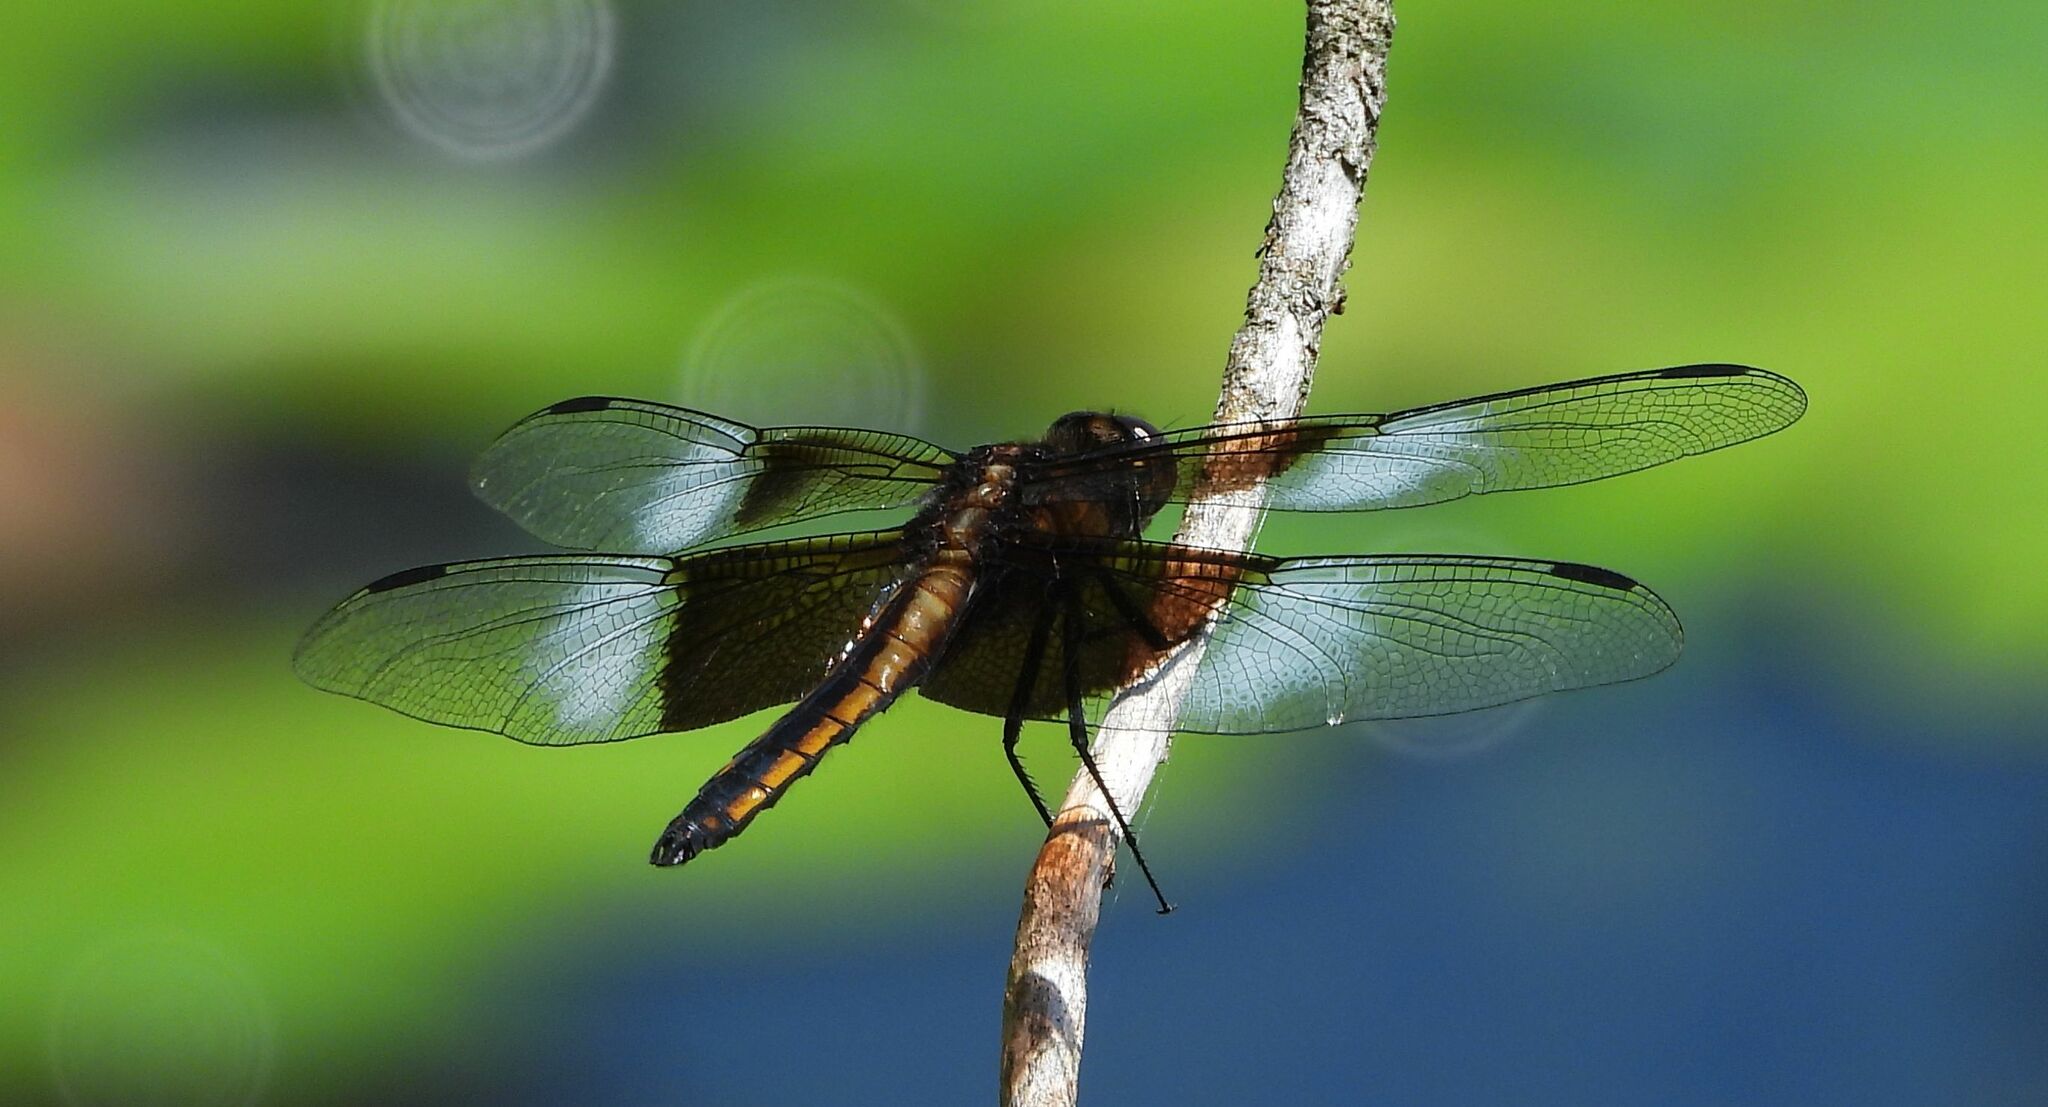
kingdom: Animalia
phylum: Arthropoda
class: Insecta
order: Odonata
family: Libellulidae
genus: Libellula
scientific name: Libellula luctuosa
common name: Widow skimmer
